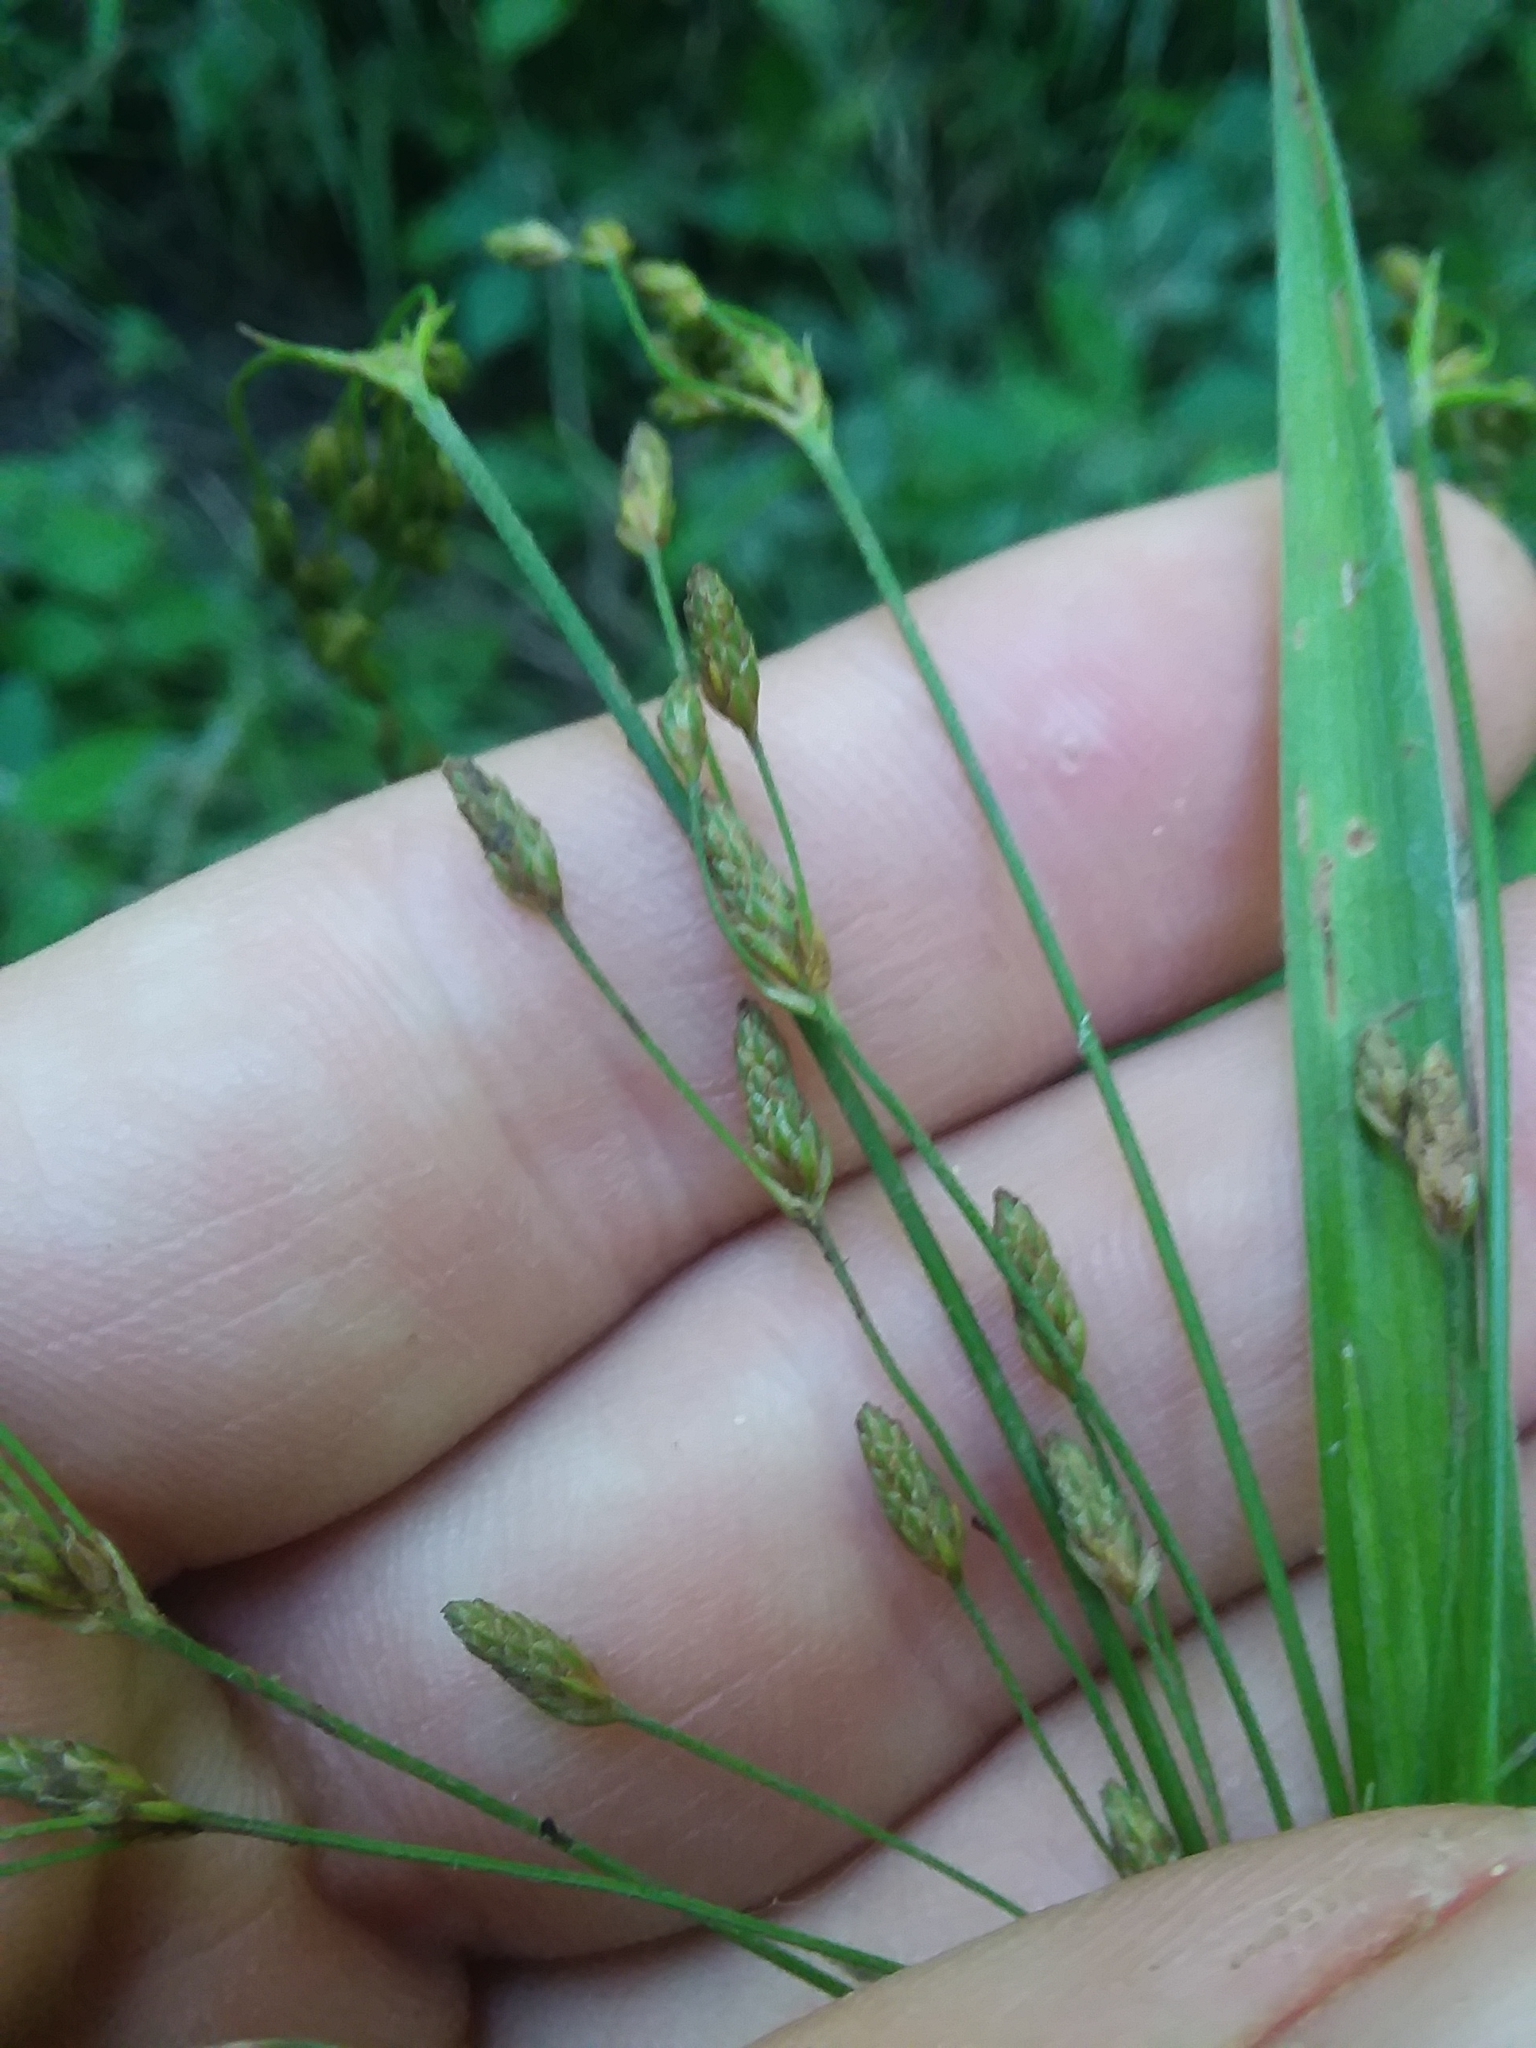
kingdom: Plantae
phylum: Tracheophyta
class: Liliopsida
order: Poales
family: Cyperaceae
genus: Scirpus
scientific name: Scirpus divaricatus
